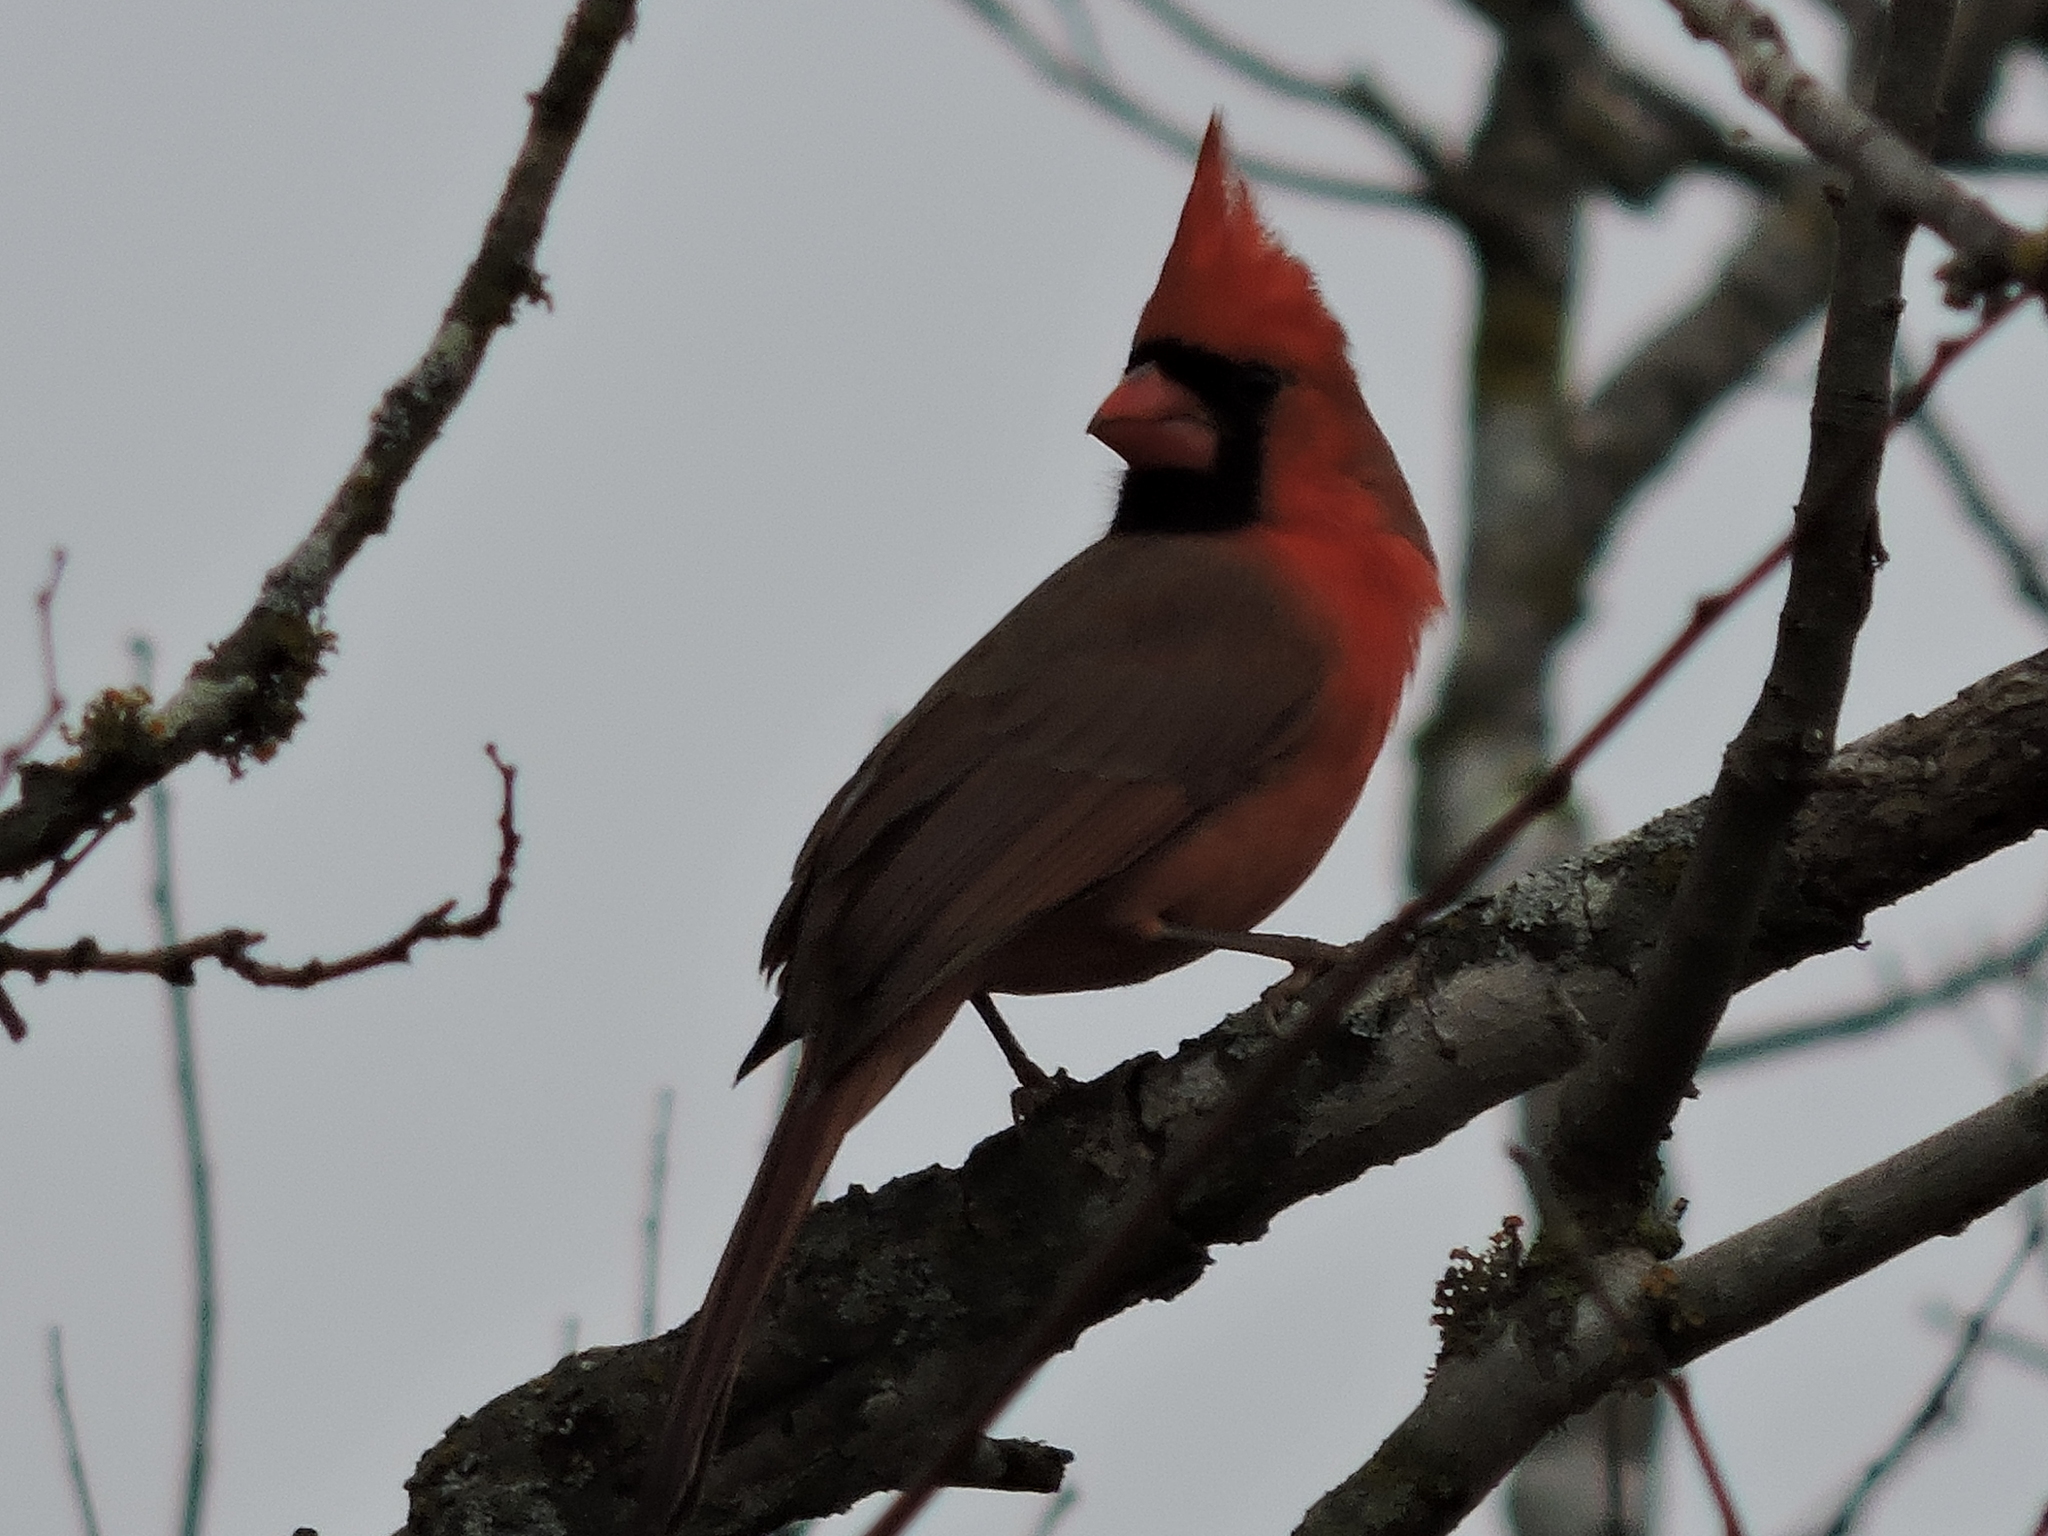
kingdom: Animalia
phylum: Chordata
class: Aves
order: Passeriformes
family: Cardinalidae
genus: Cardinalis
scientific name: Cardinalis cardinalis
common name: Northern cardinal
